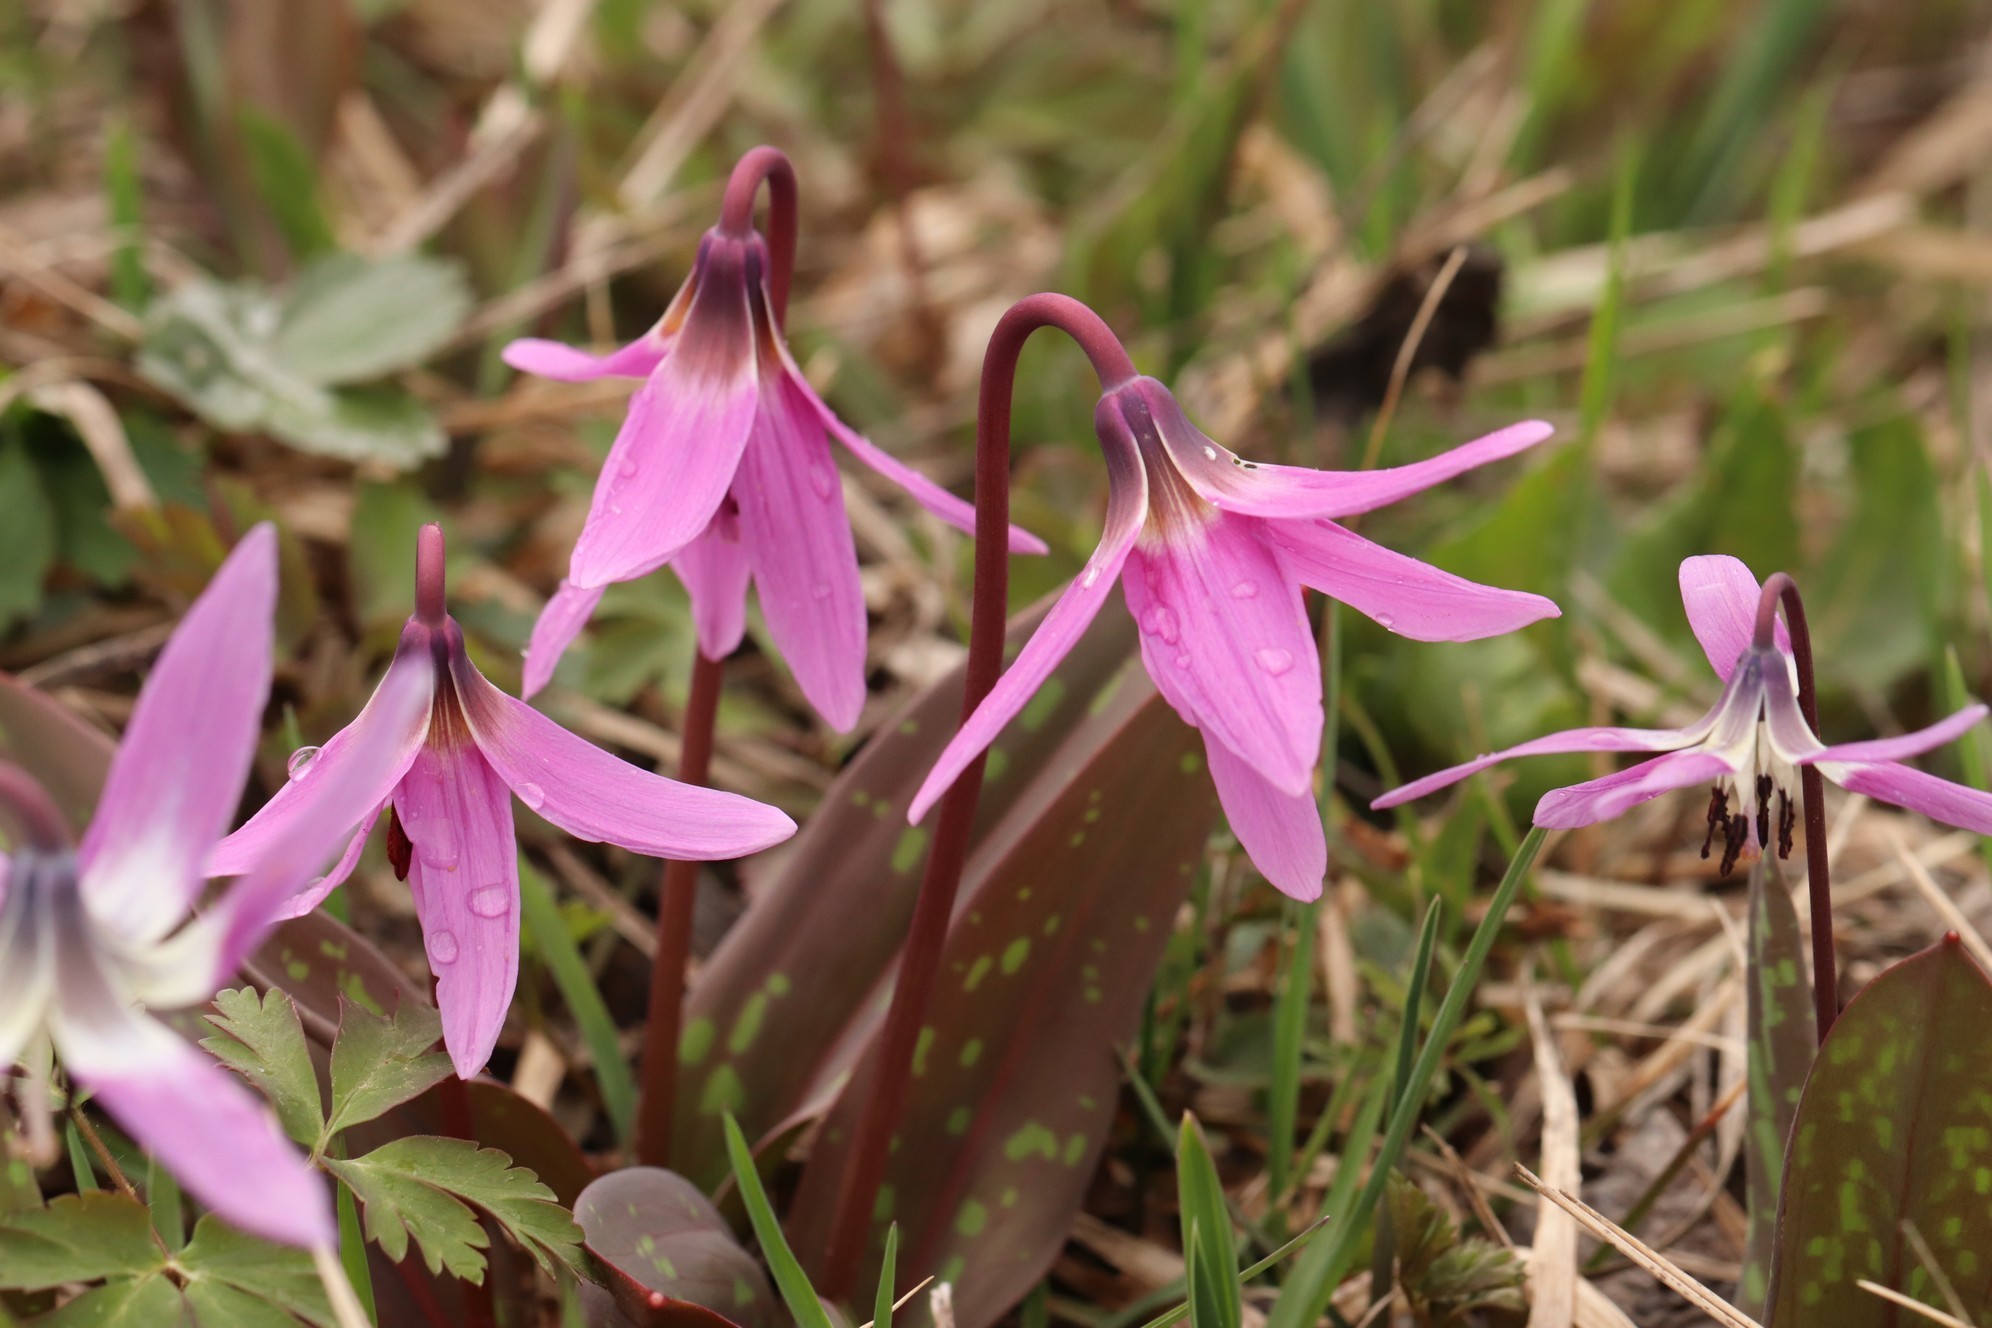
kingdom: Plantae
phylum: Tracheophyta
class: Liliopsida
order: Liliales
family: Liliaceae
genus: Erythronium
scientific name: Erythronium sulevii
